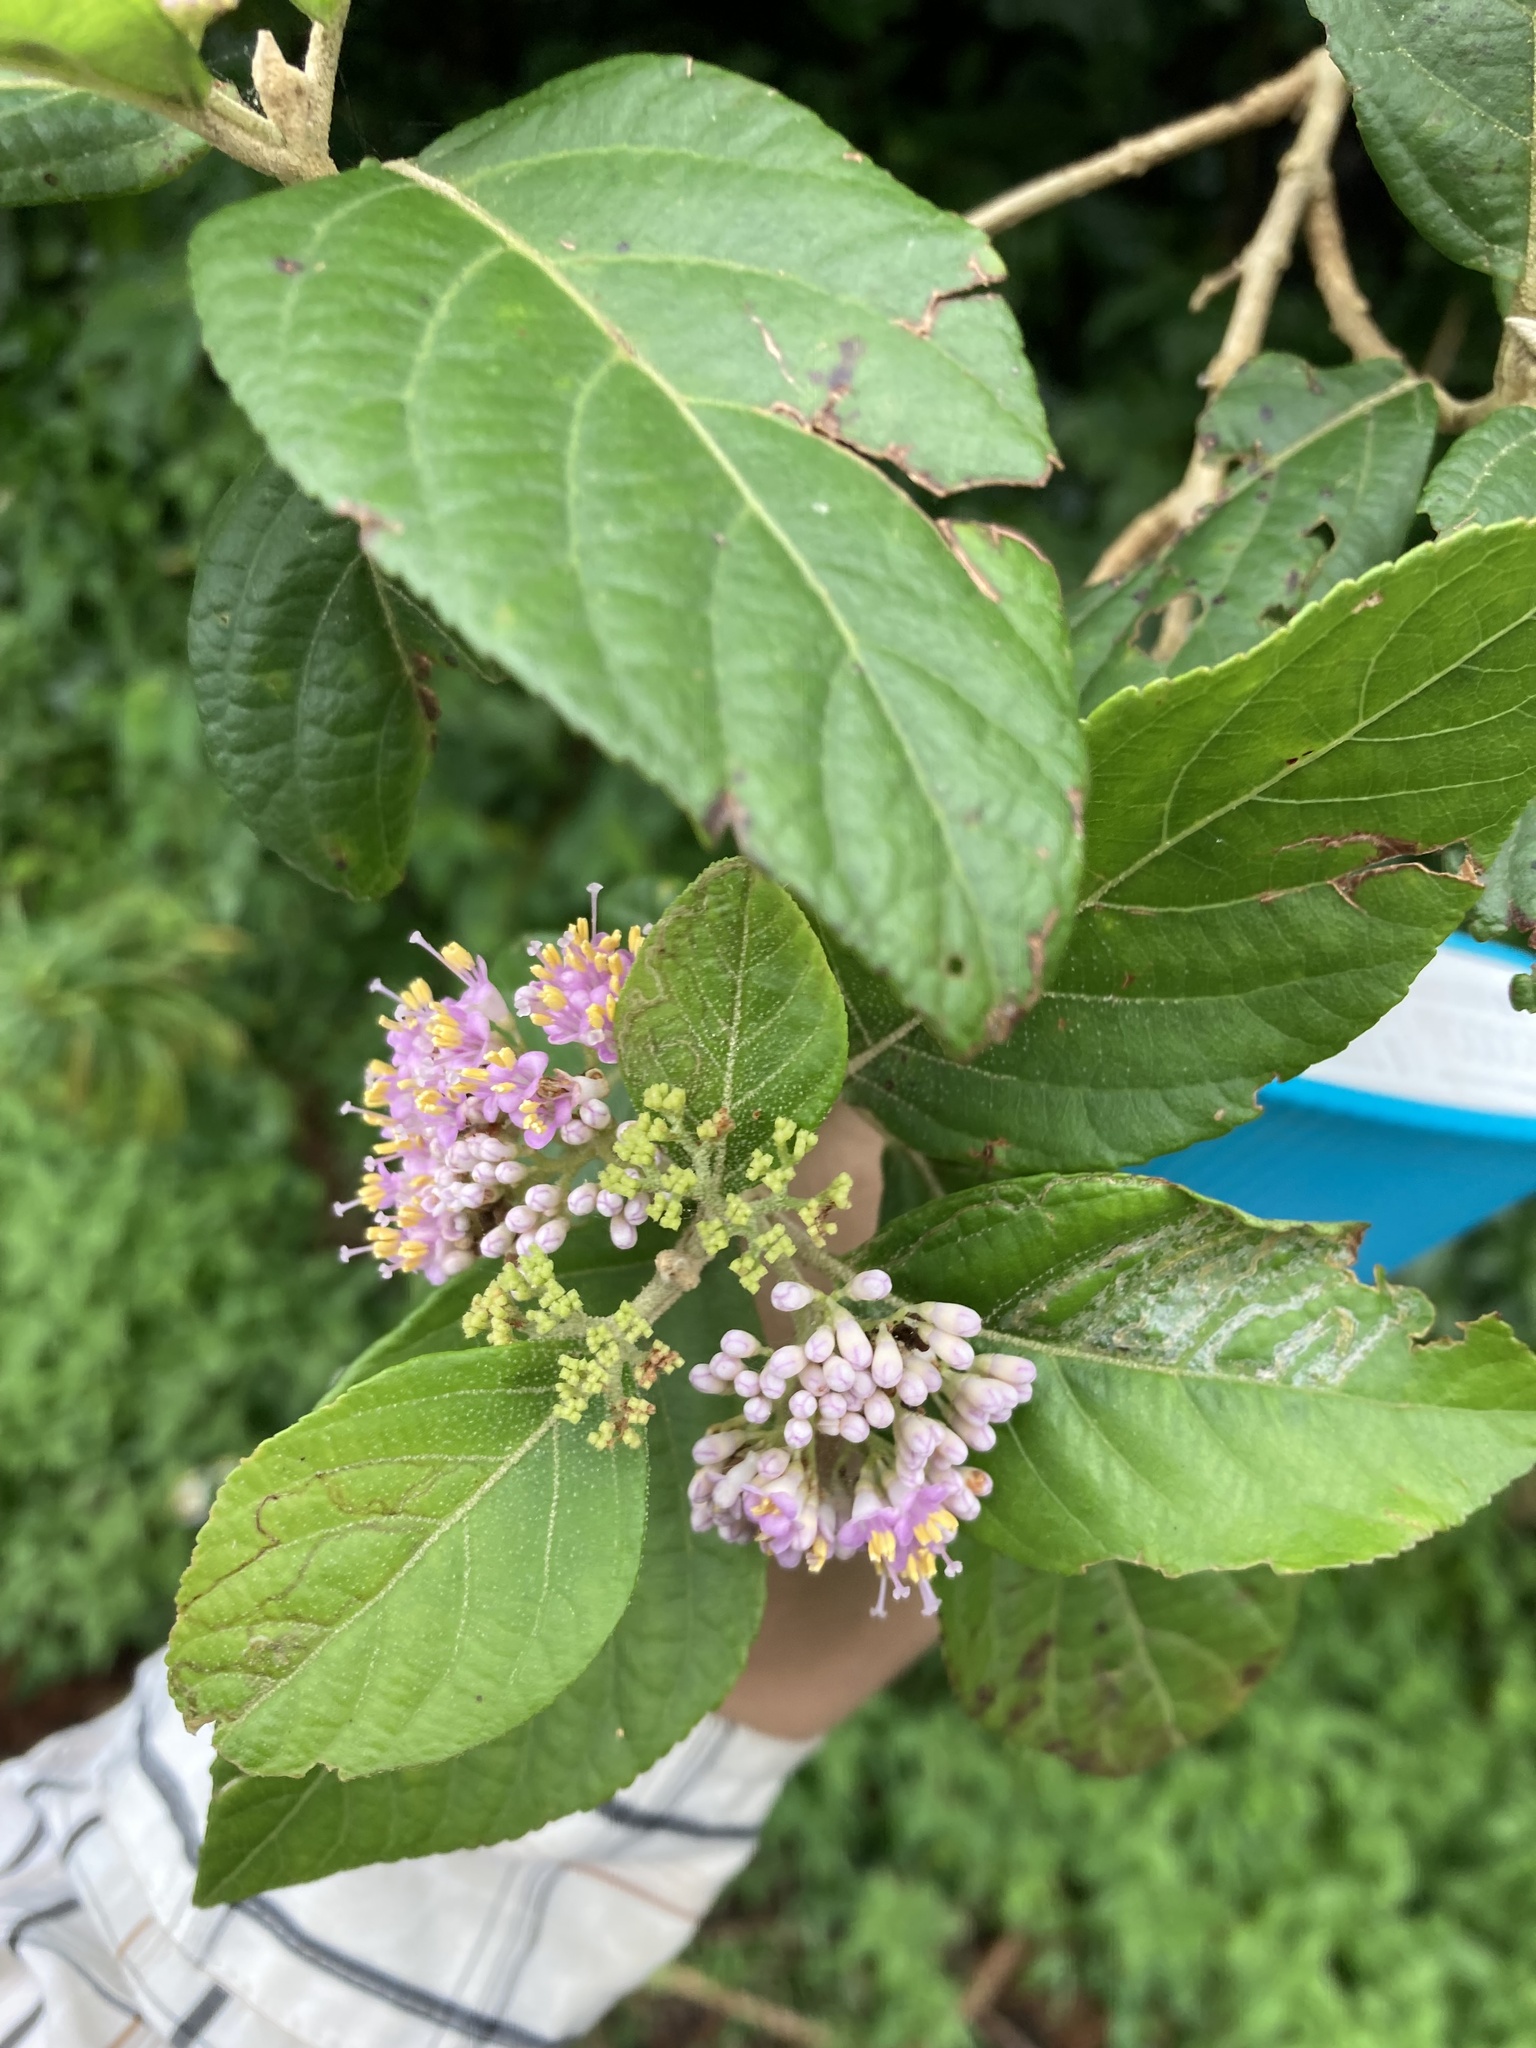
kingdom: Plantae
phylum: Tracheophyta
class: Magnoliopsida
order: Lamiales
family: Lamiaceae
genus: Callicarpa
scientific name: Callicarpa pedunculata
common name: Velvetleaf
